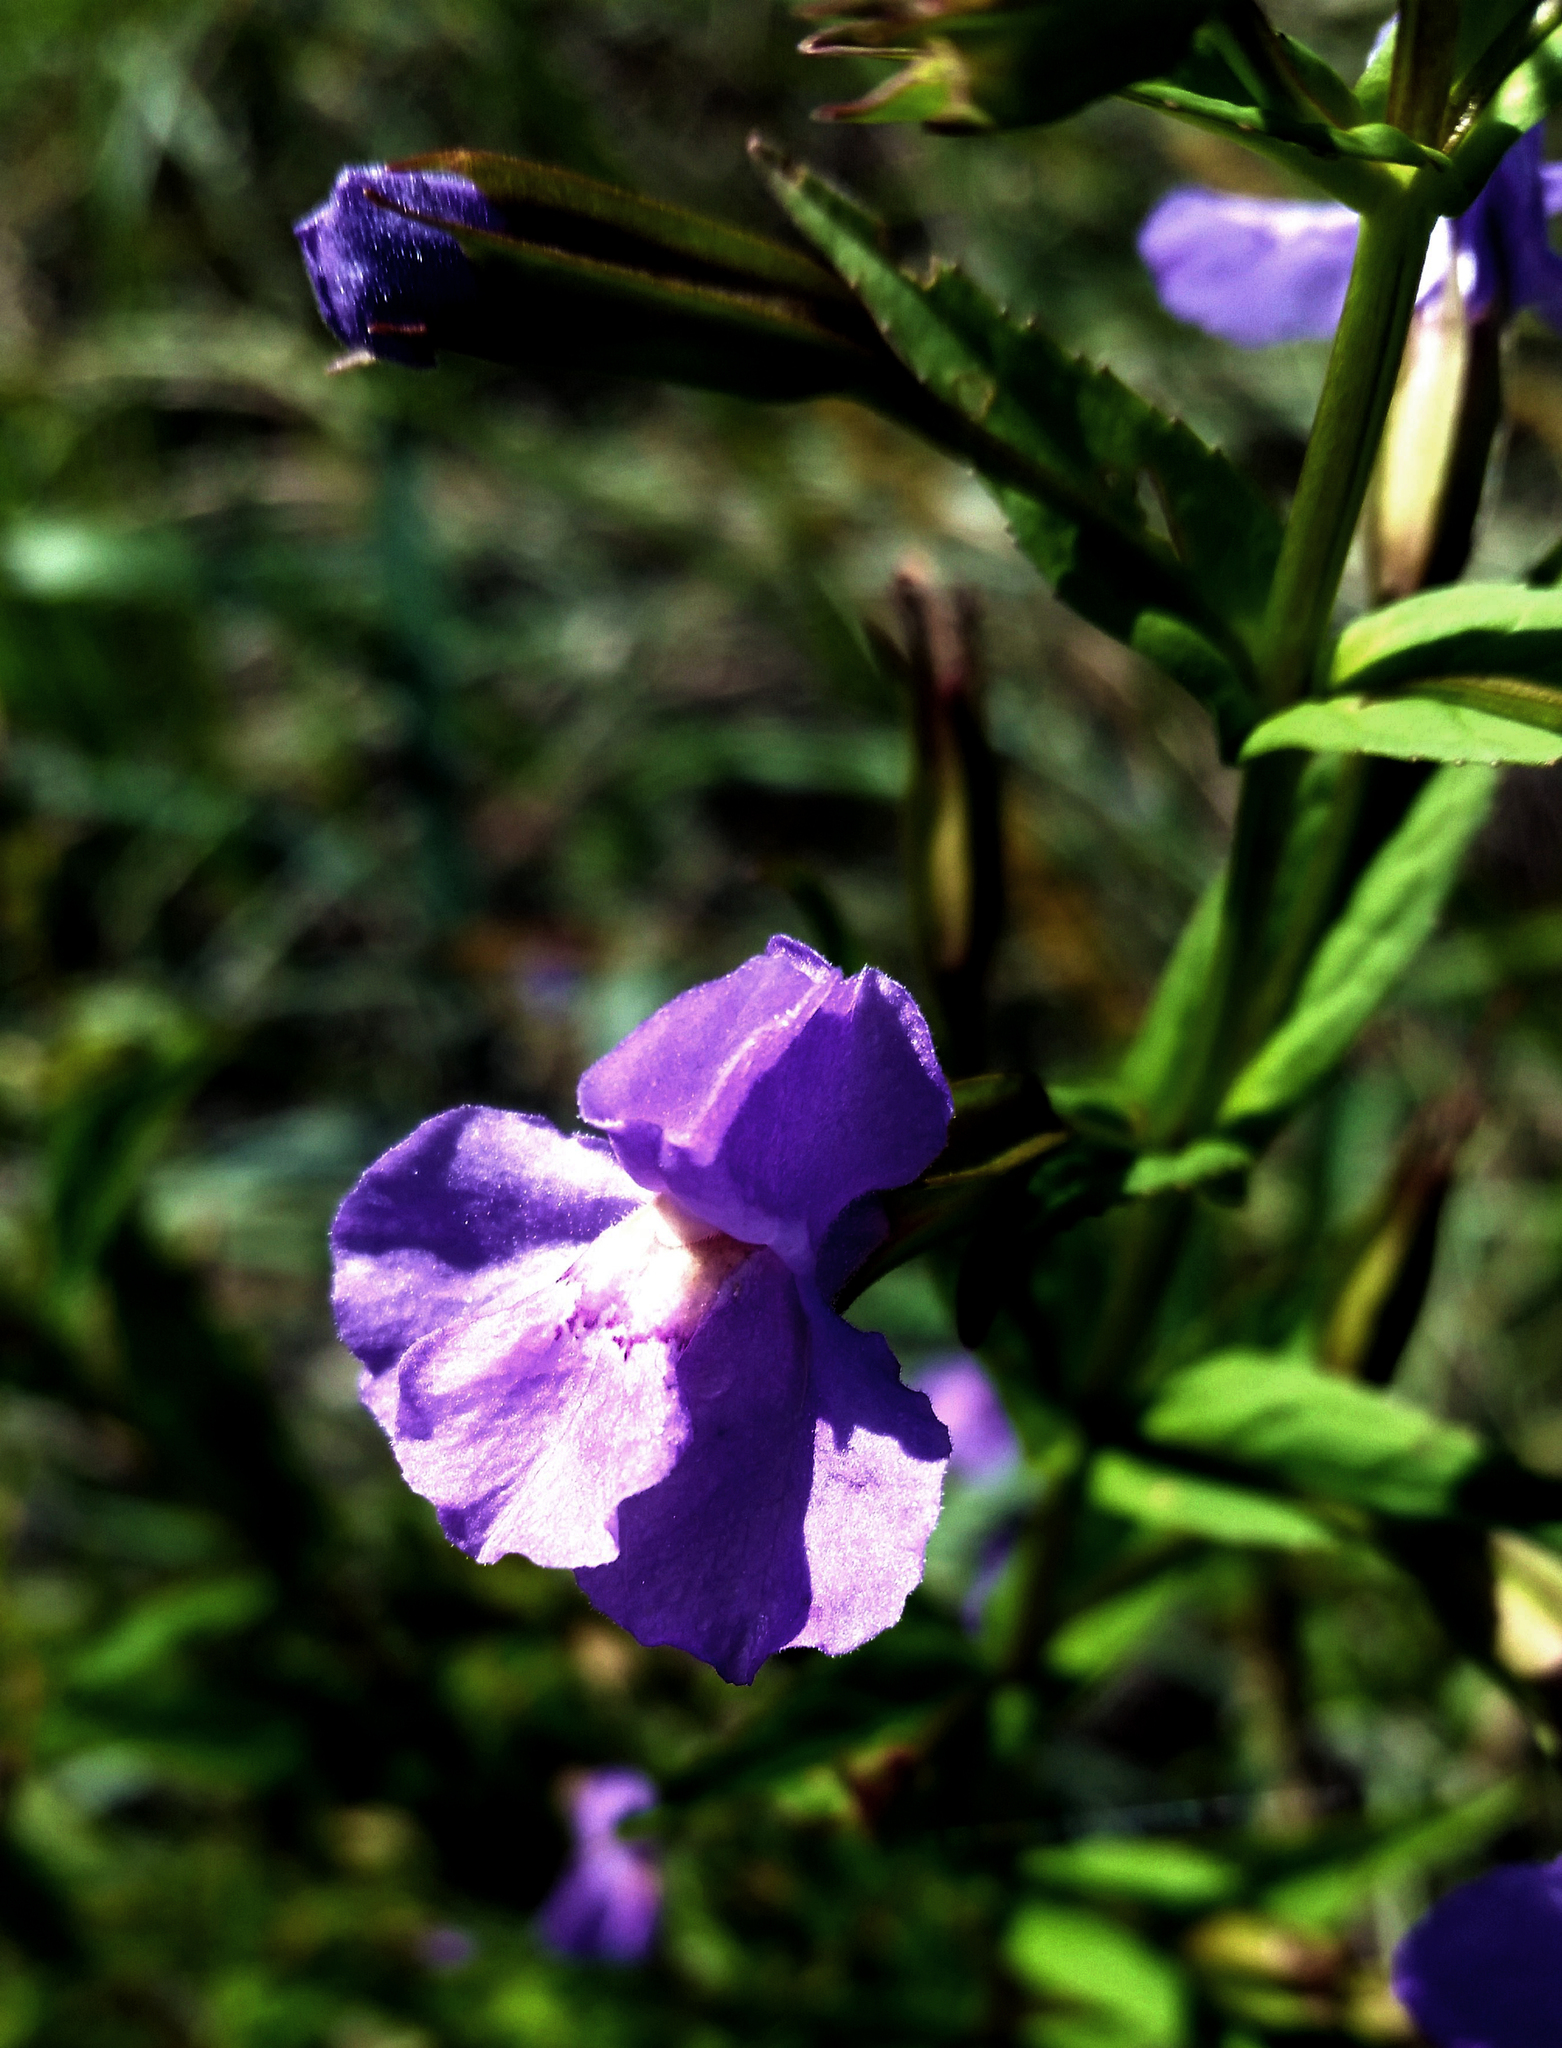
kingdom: Plantae
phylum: Tracheophyta
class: Magnoliopsida
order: Lamiales
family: Phrymaceae
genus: Mimulus
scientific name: Mimulus ringens
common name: Allegheny monkeyflower
